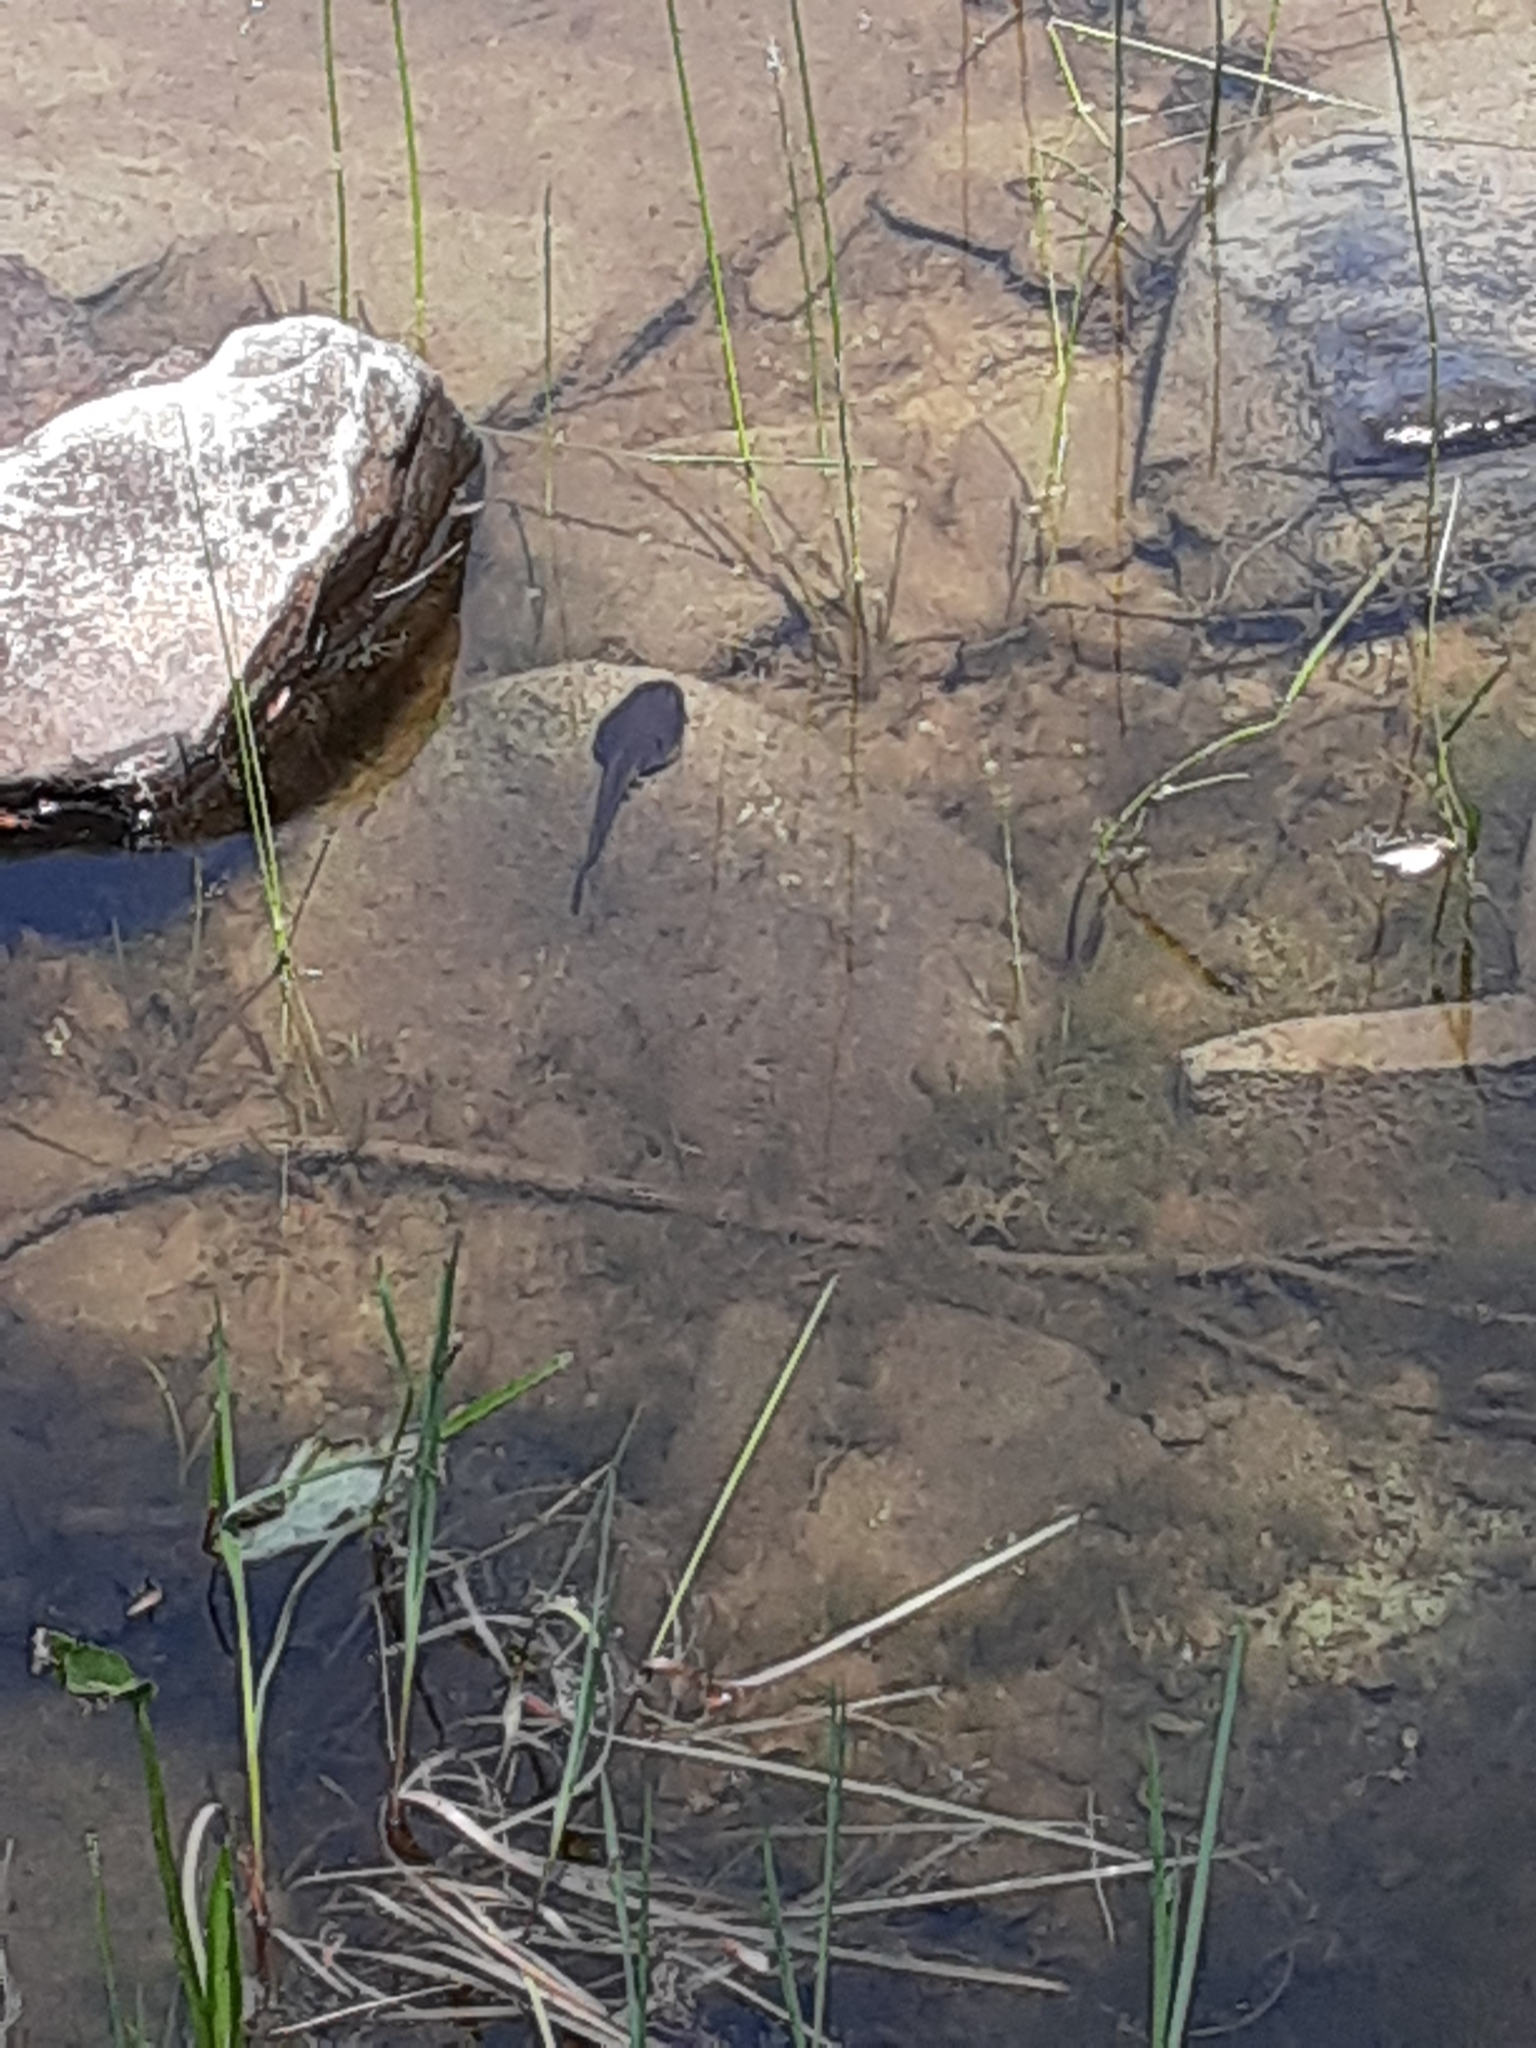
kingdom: Animalia
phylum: Chordata
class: Amphibia
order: Anura
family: Ranidae
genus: Lithobates
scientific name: Lithobates catesbeianus
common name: American bullfrog
